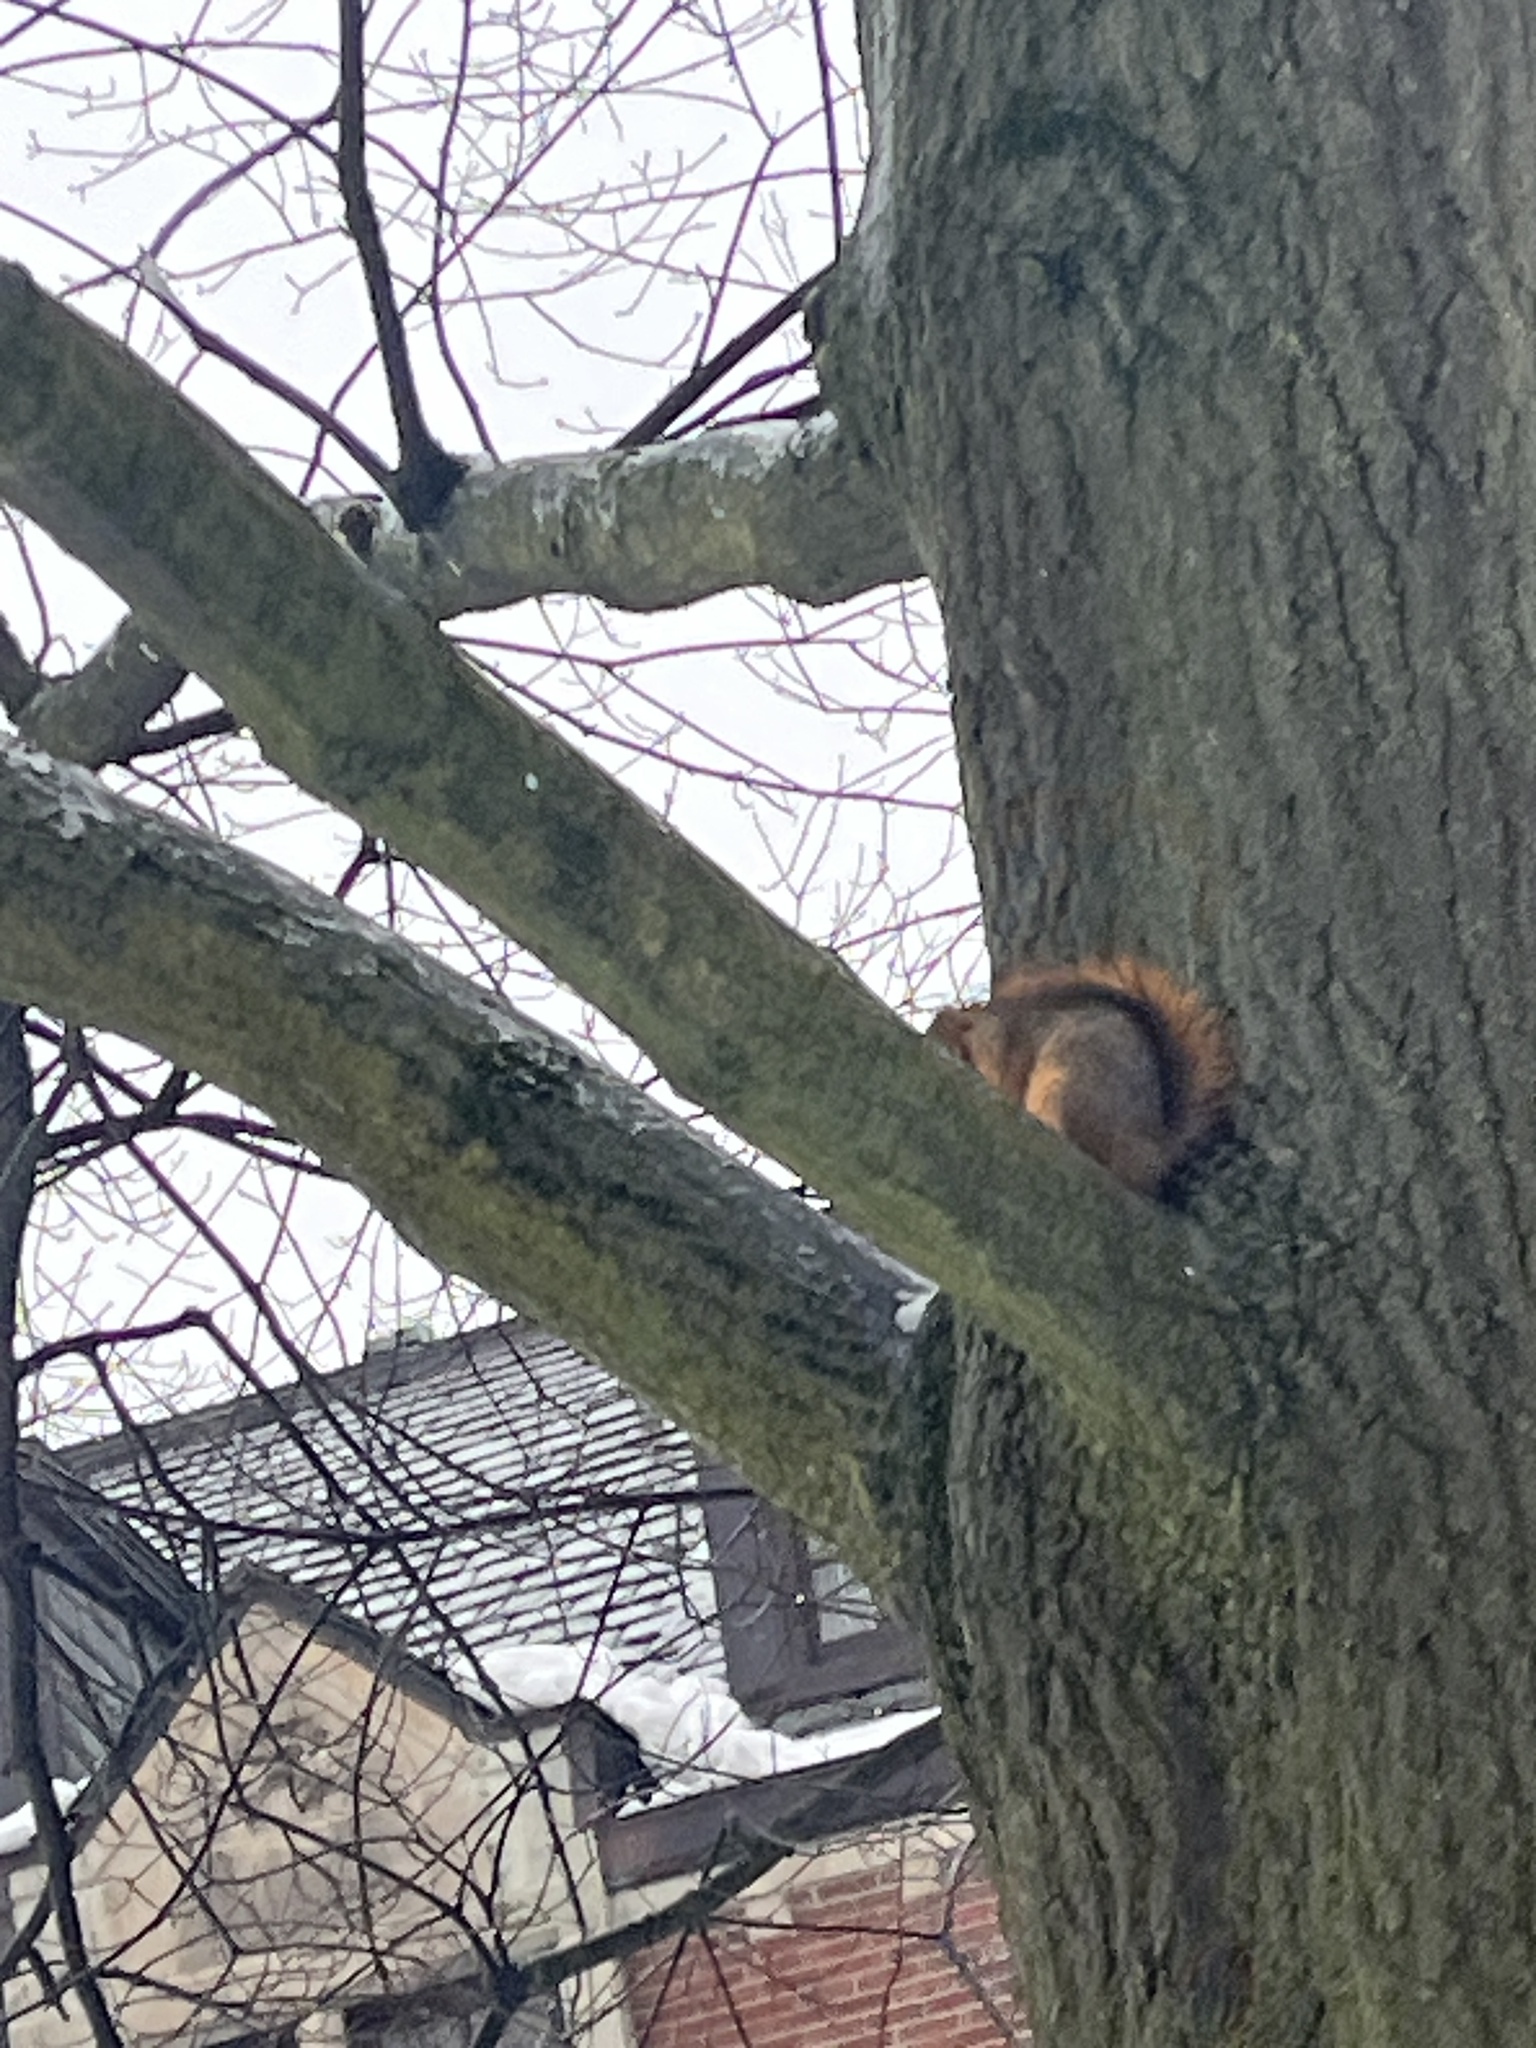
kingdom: Animalia
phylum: Chordata
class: Mammalia
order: Rodentia
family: Sciuridae
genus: Sciurus
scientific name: Sciurus niger
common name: Fox squirrel
